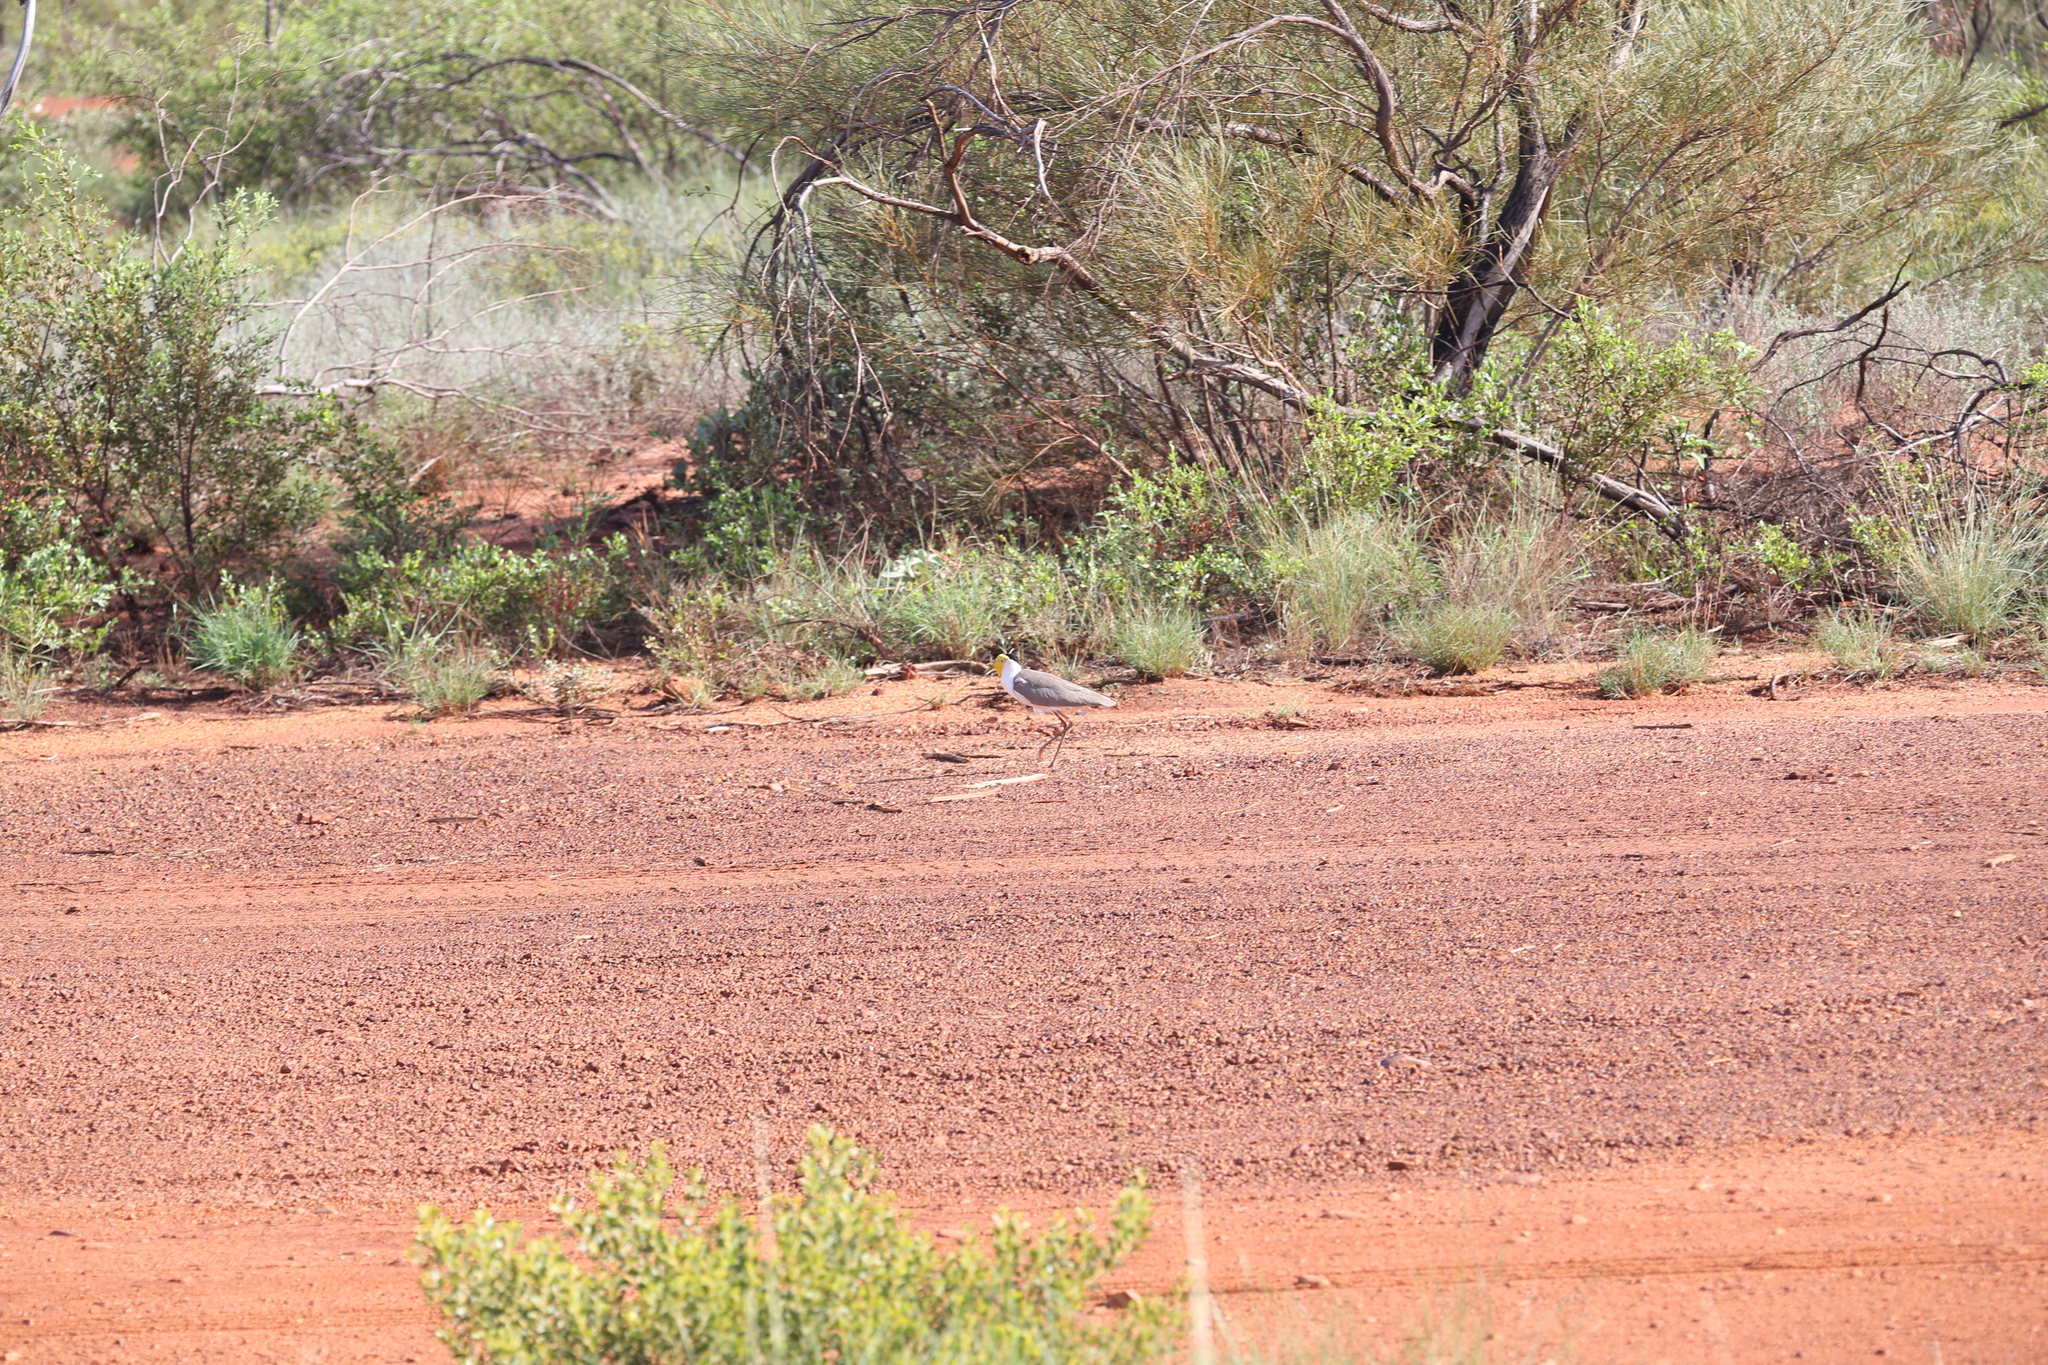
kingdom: Animalia
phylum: Chordata
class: Aves
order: Charadriiformes
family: Charadriidae
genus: Vanellus
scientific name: Vanellus miles
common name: Masked lapwing
